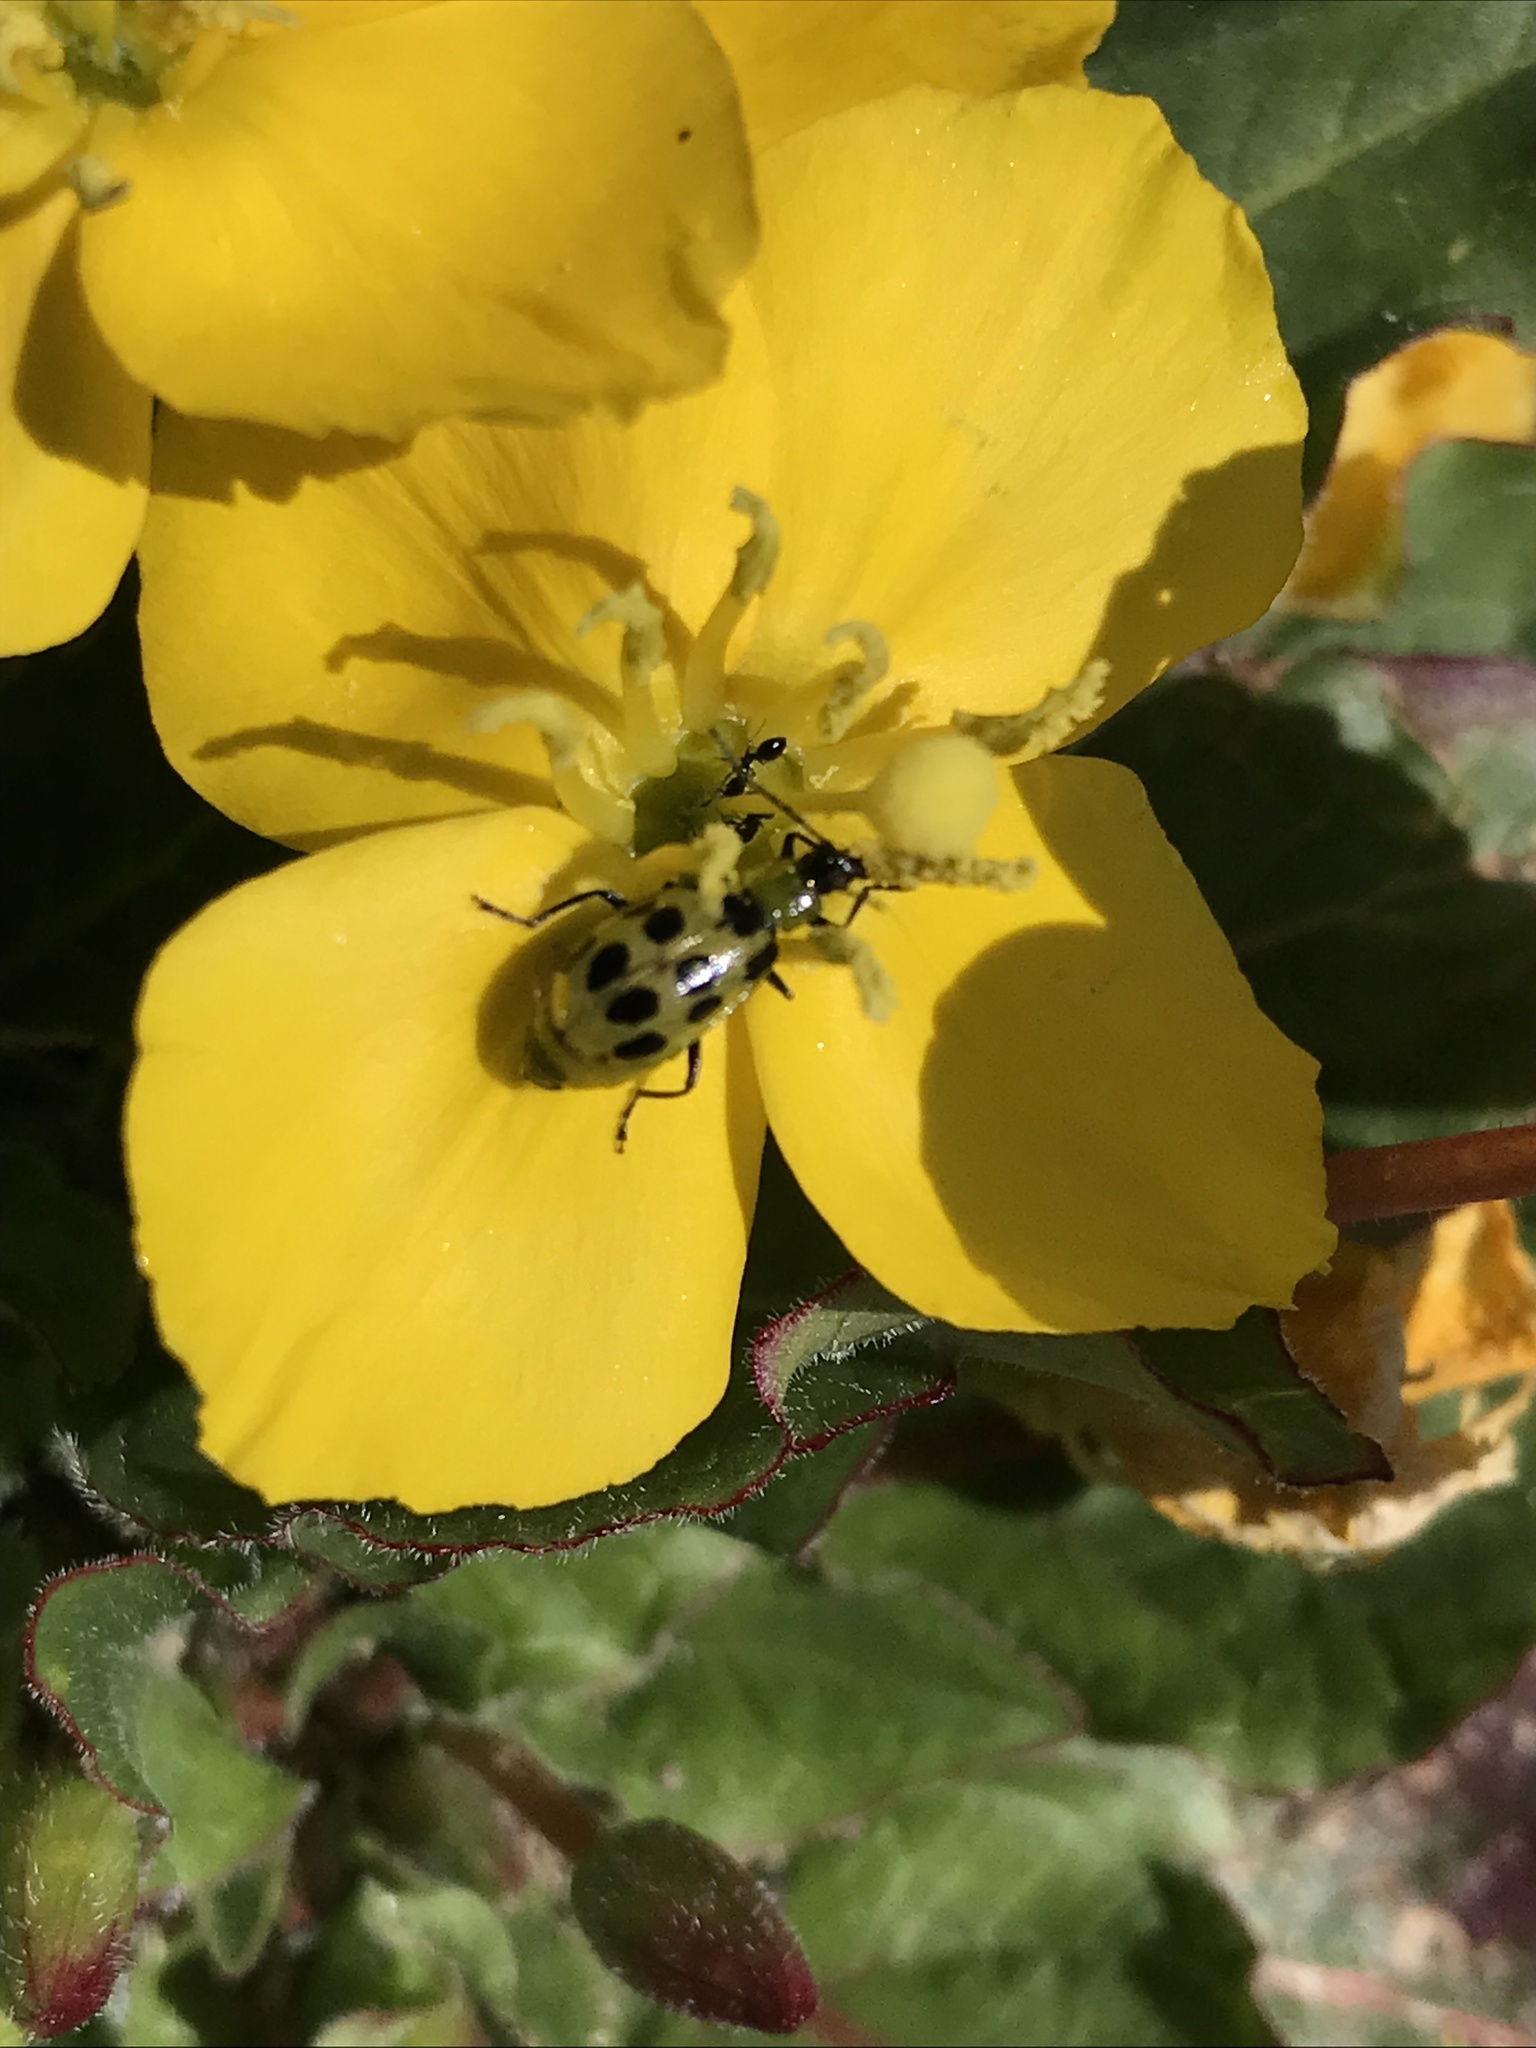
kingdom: Animalia
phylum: Arthropoda
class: Insecta
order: Coleoptera
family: Chrysomelidae
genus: Diabrotica
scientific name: Diabrotica undecimpunctata
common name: Spotted cucumber beetle
